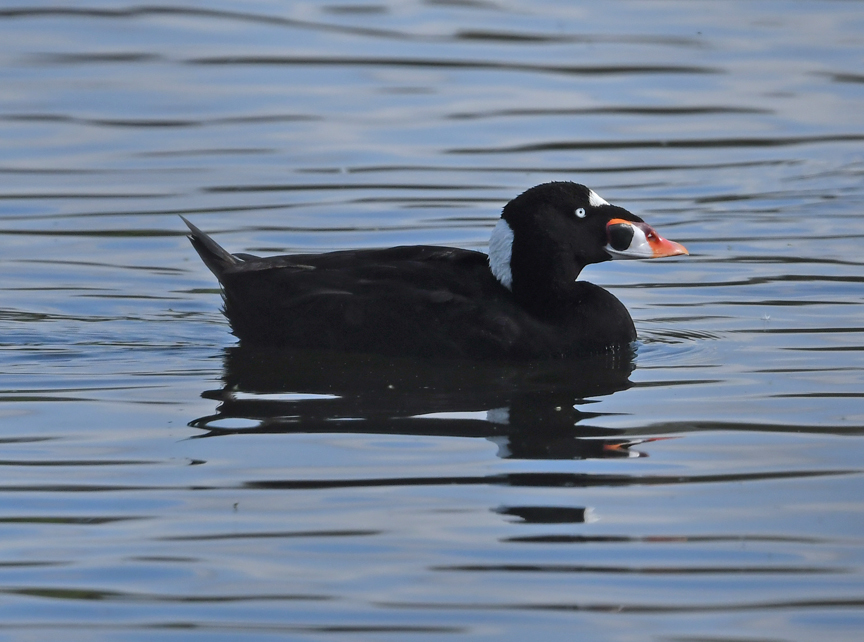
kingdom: Animalia
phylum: Chordata
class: Aves
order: Anseriformes
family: Anatidae
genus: Melanitta
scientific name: Melanitta perspicillata
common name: Surf scoter
